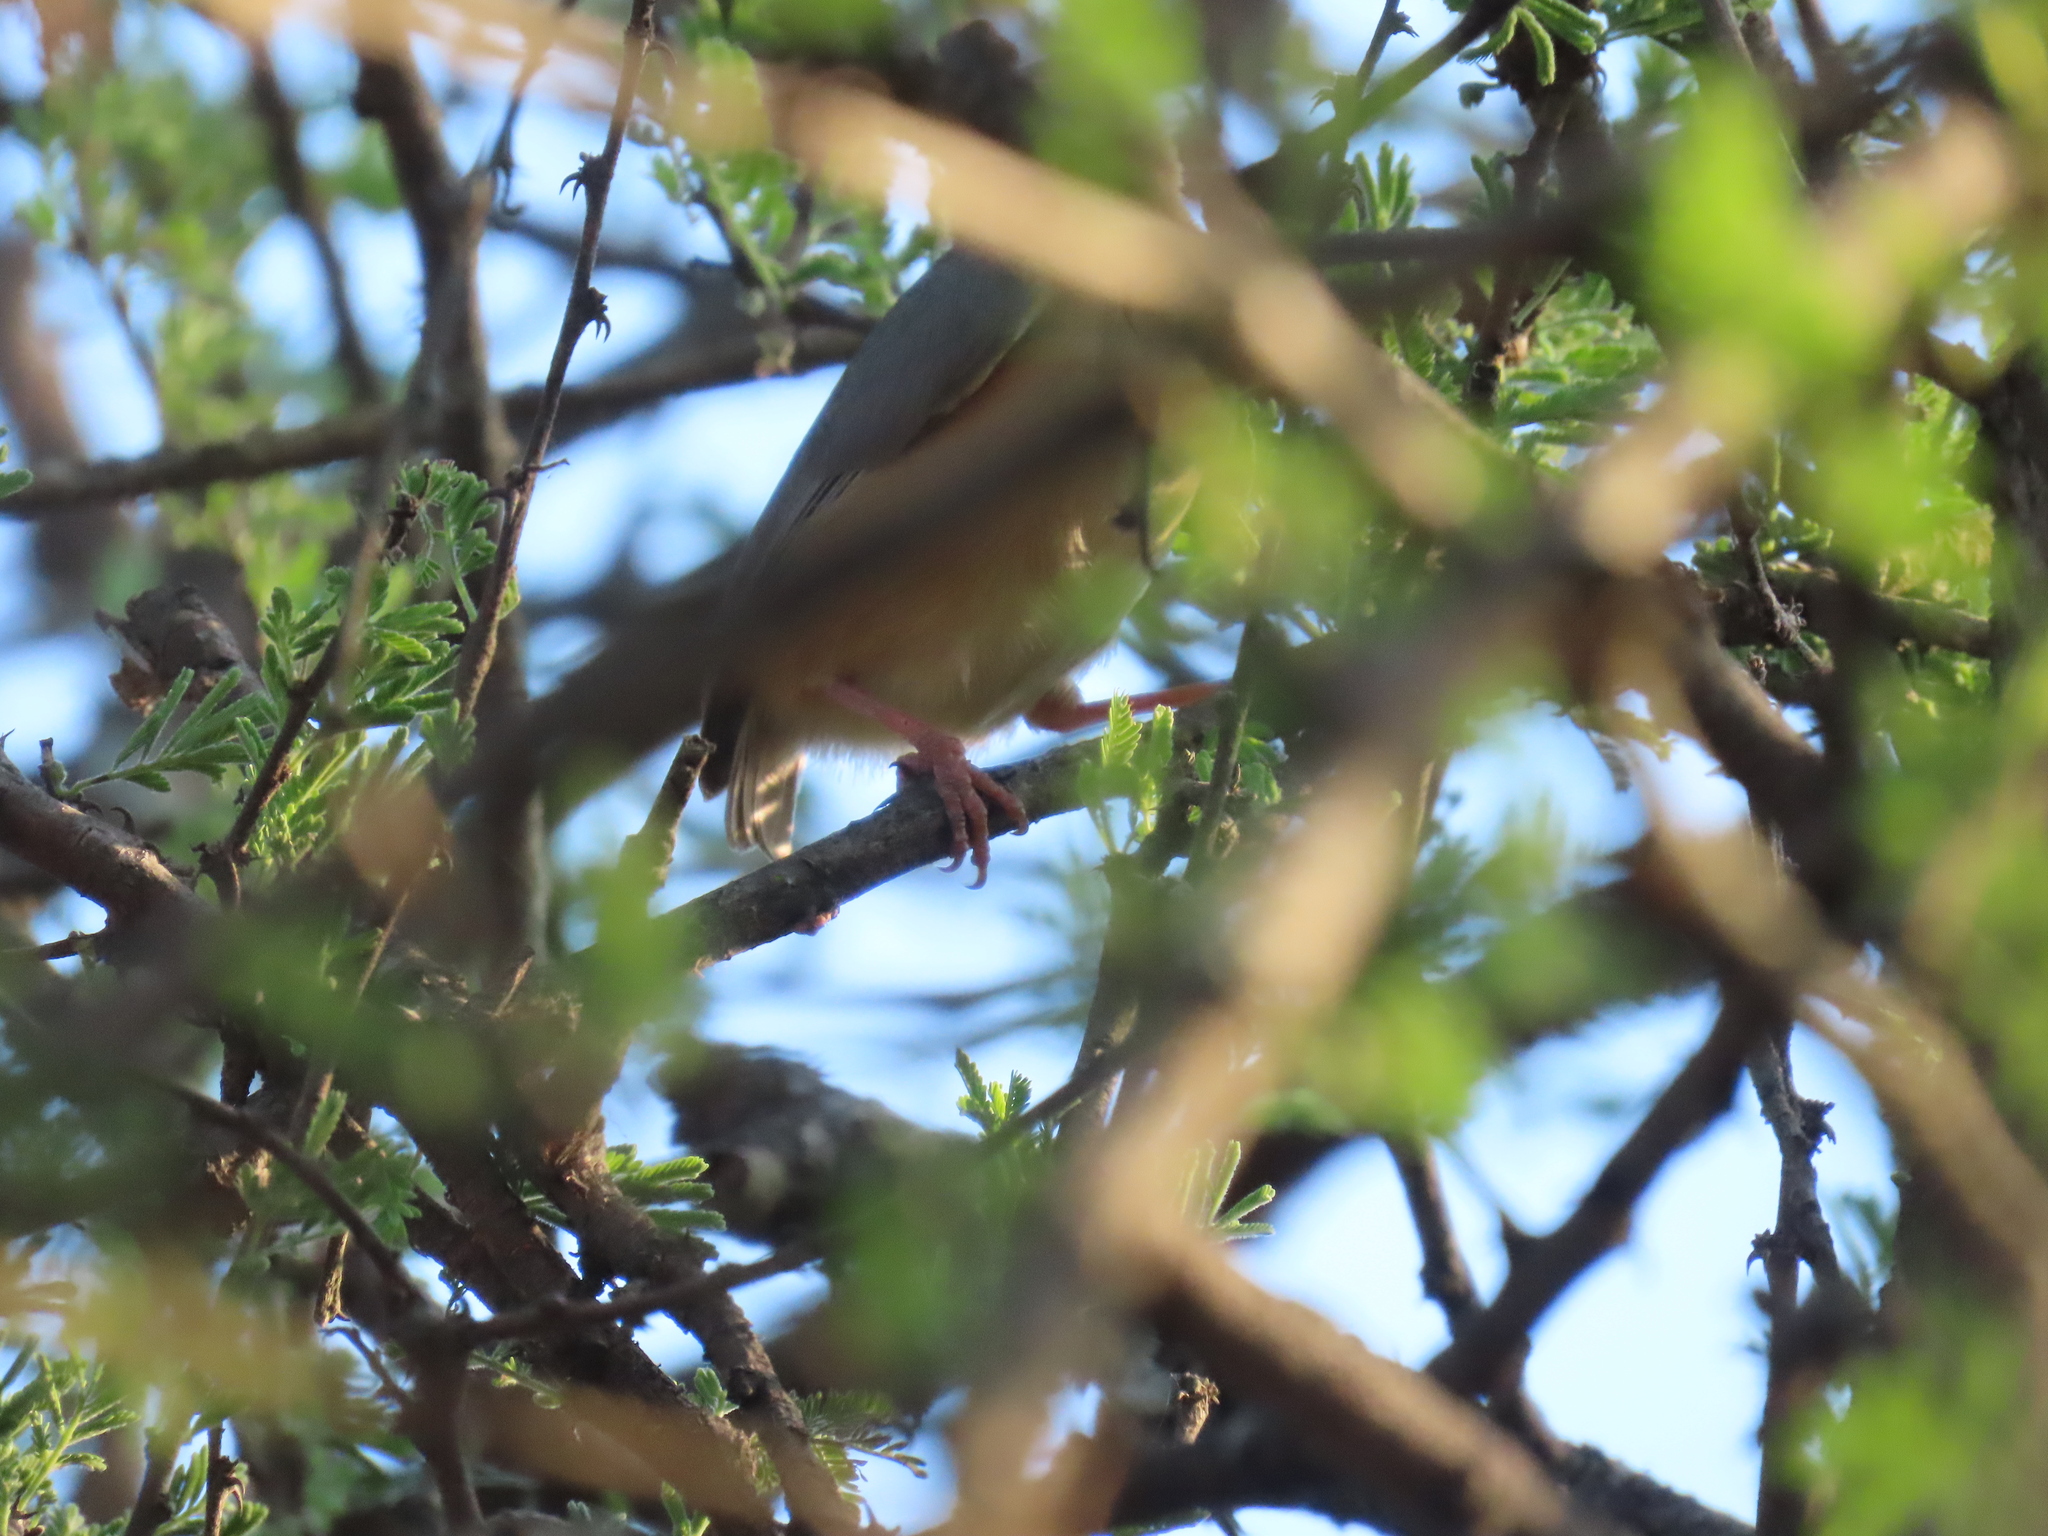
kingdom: Animalia
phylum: Chordata
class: Aves
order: Passeriformes
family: Macrosphenidae
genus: Sylvietta
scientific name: Sylvietta rufescens
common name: Long-billed crombec
